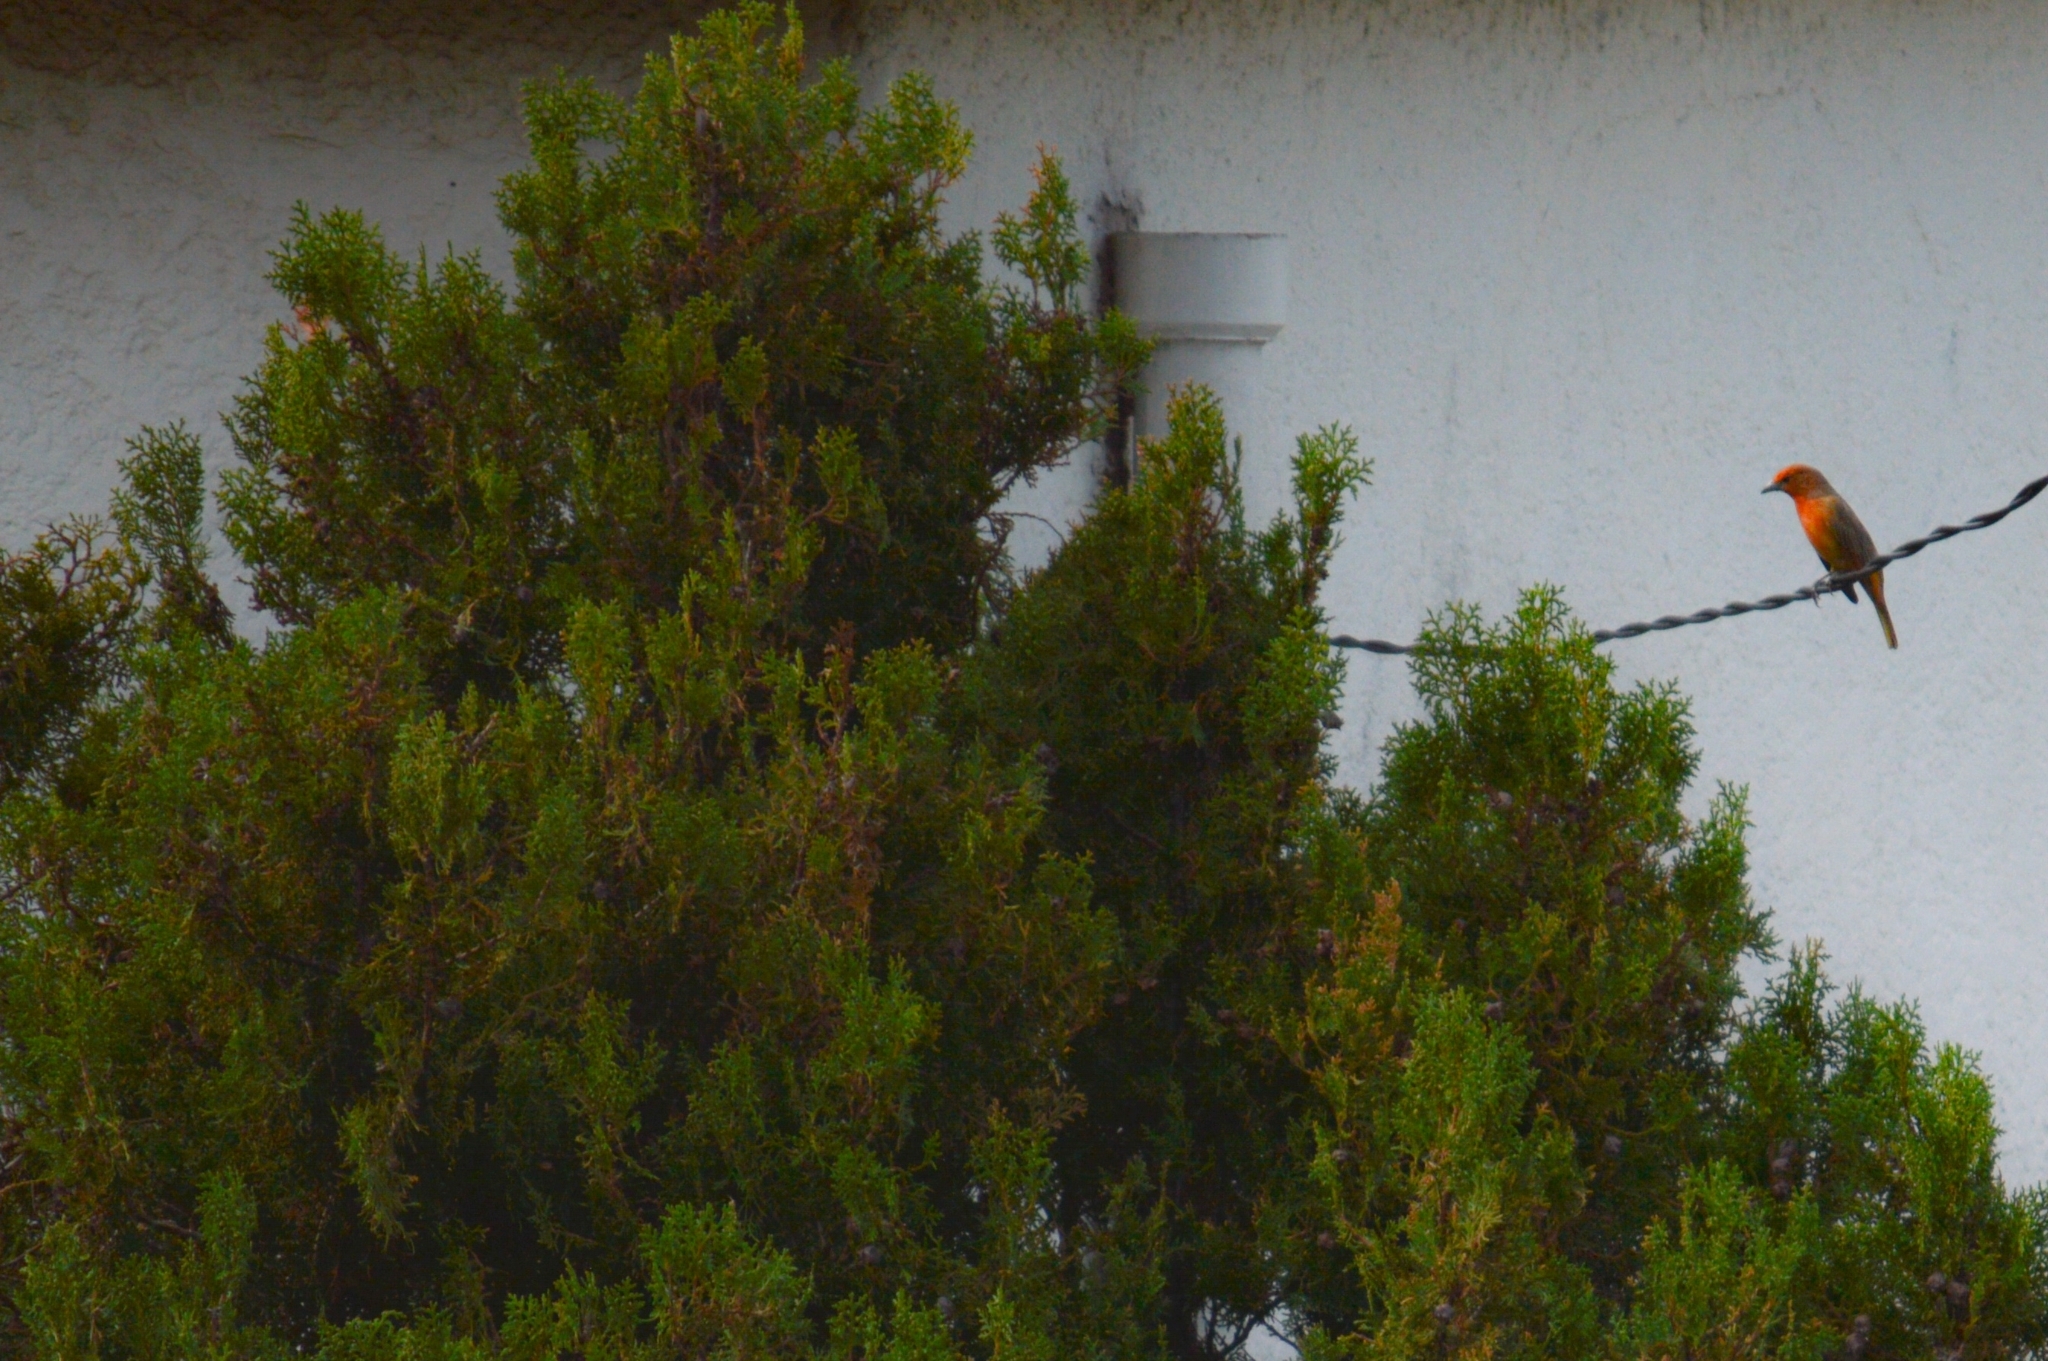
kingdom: Animalia
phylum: Chordata
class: Aves
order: Passeriformes
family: Cardinalidae
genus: Piranga
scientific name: Piranga flava
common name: Red tanager
